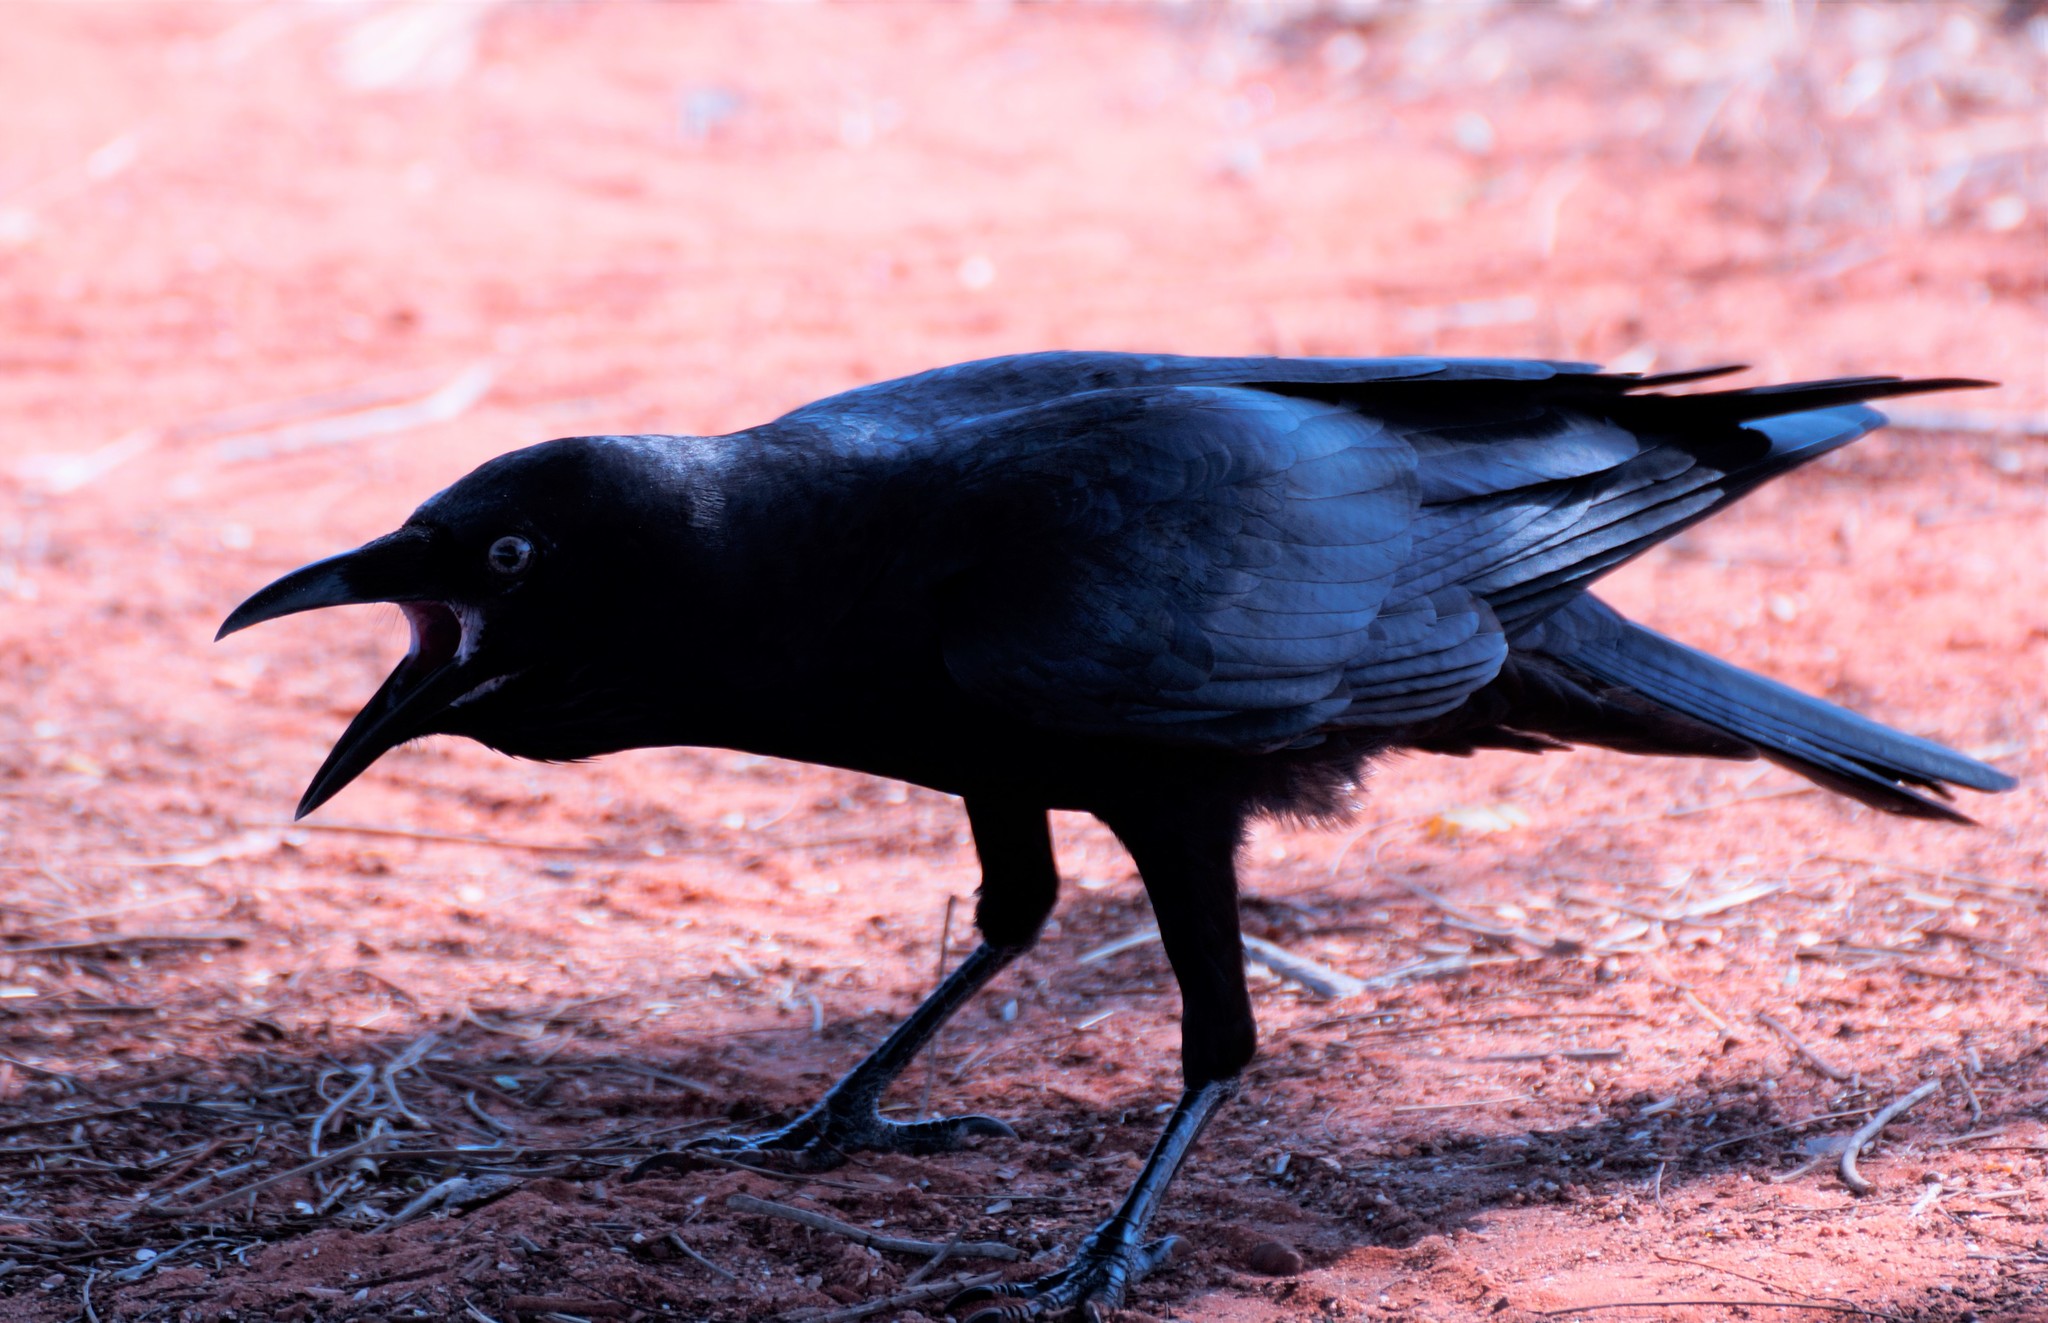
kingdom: Animalia
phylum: Chordata
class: Aves
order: Passeriformes
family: Corvidae
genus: Corvus
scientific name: Corvus orru
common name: Torresian crow
